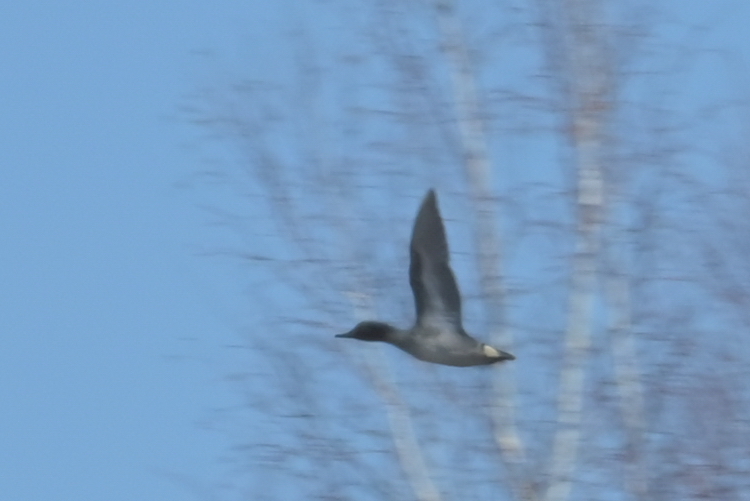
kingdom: Animalia
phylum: Chordata
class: Aves
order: Anseriformes
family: Anatidae
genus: Anas
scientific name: Anas crecca
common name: Eurasian teal
